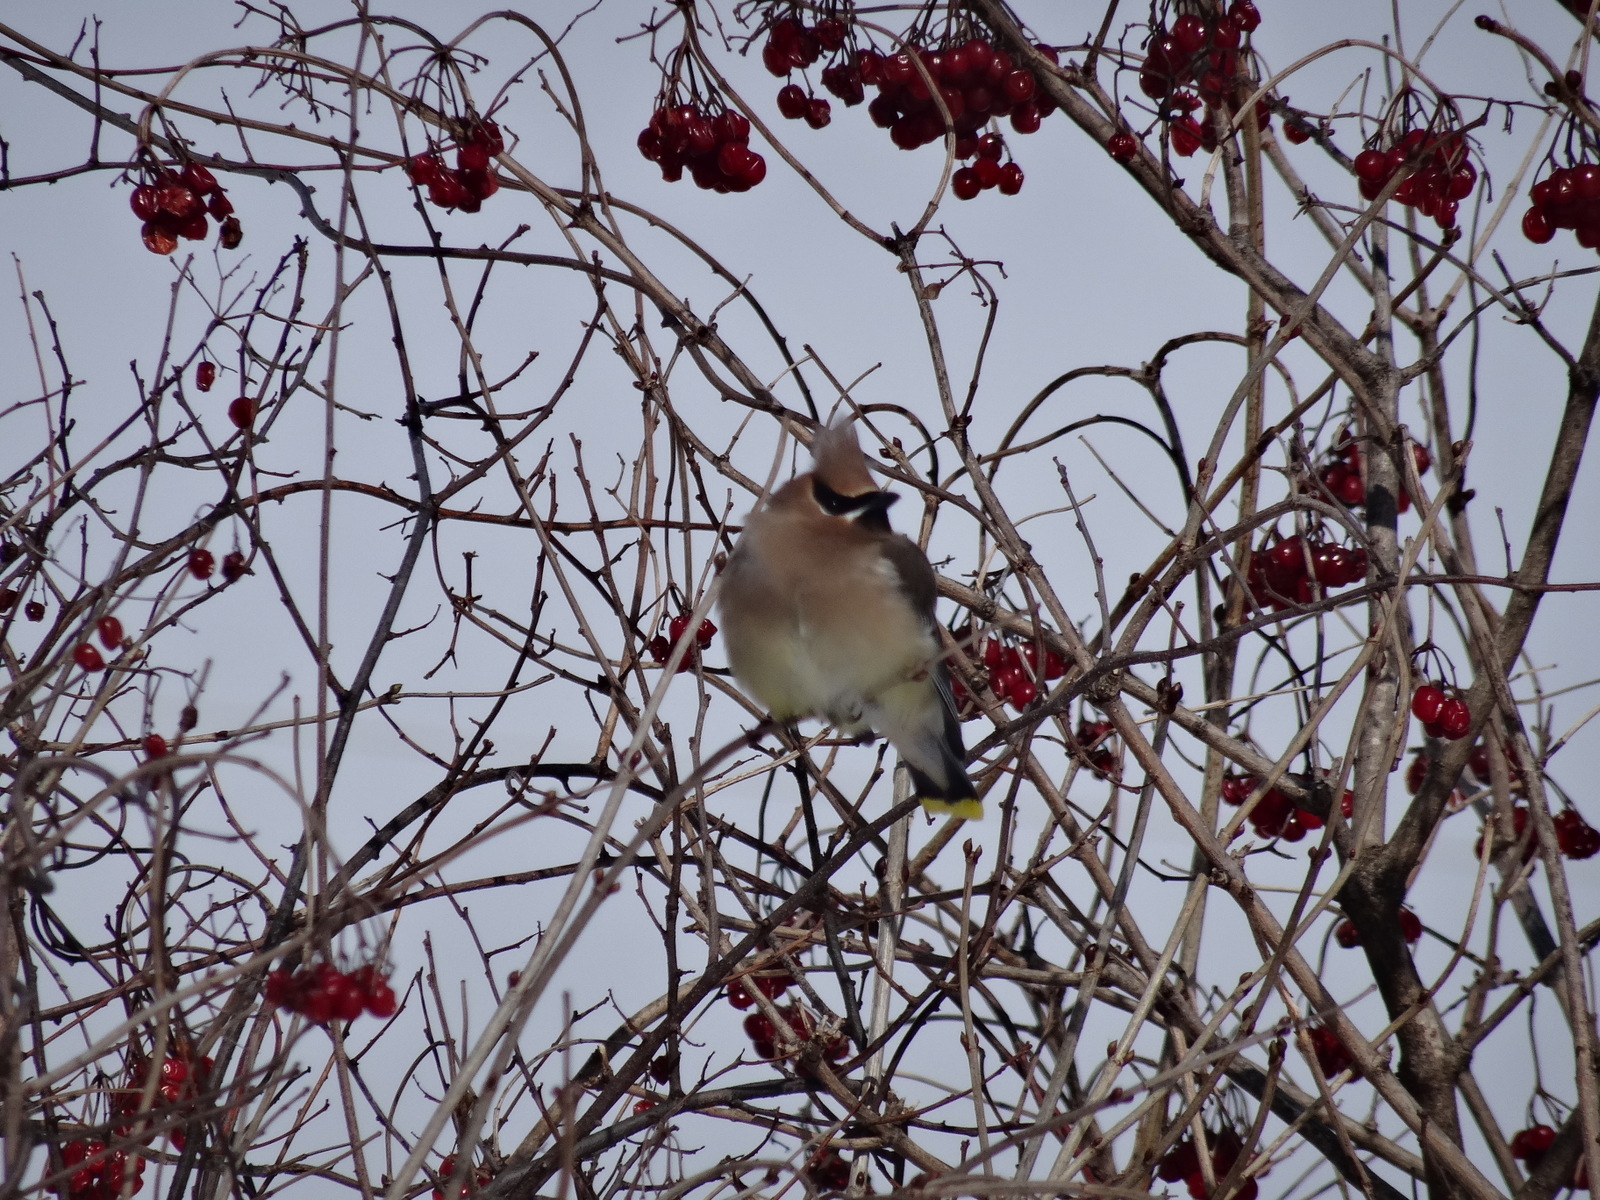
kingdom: Animalia
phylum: Chordata
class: Aves
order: Passeriformes
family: Bombycillidae
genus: Bombycilla
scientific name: Bombycilla cedrorum
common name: Cedar waxwing
